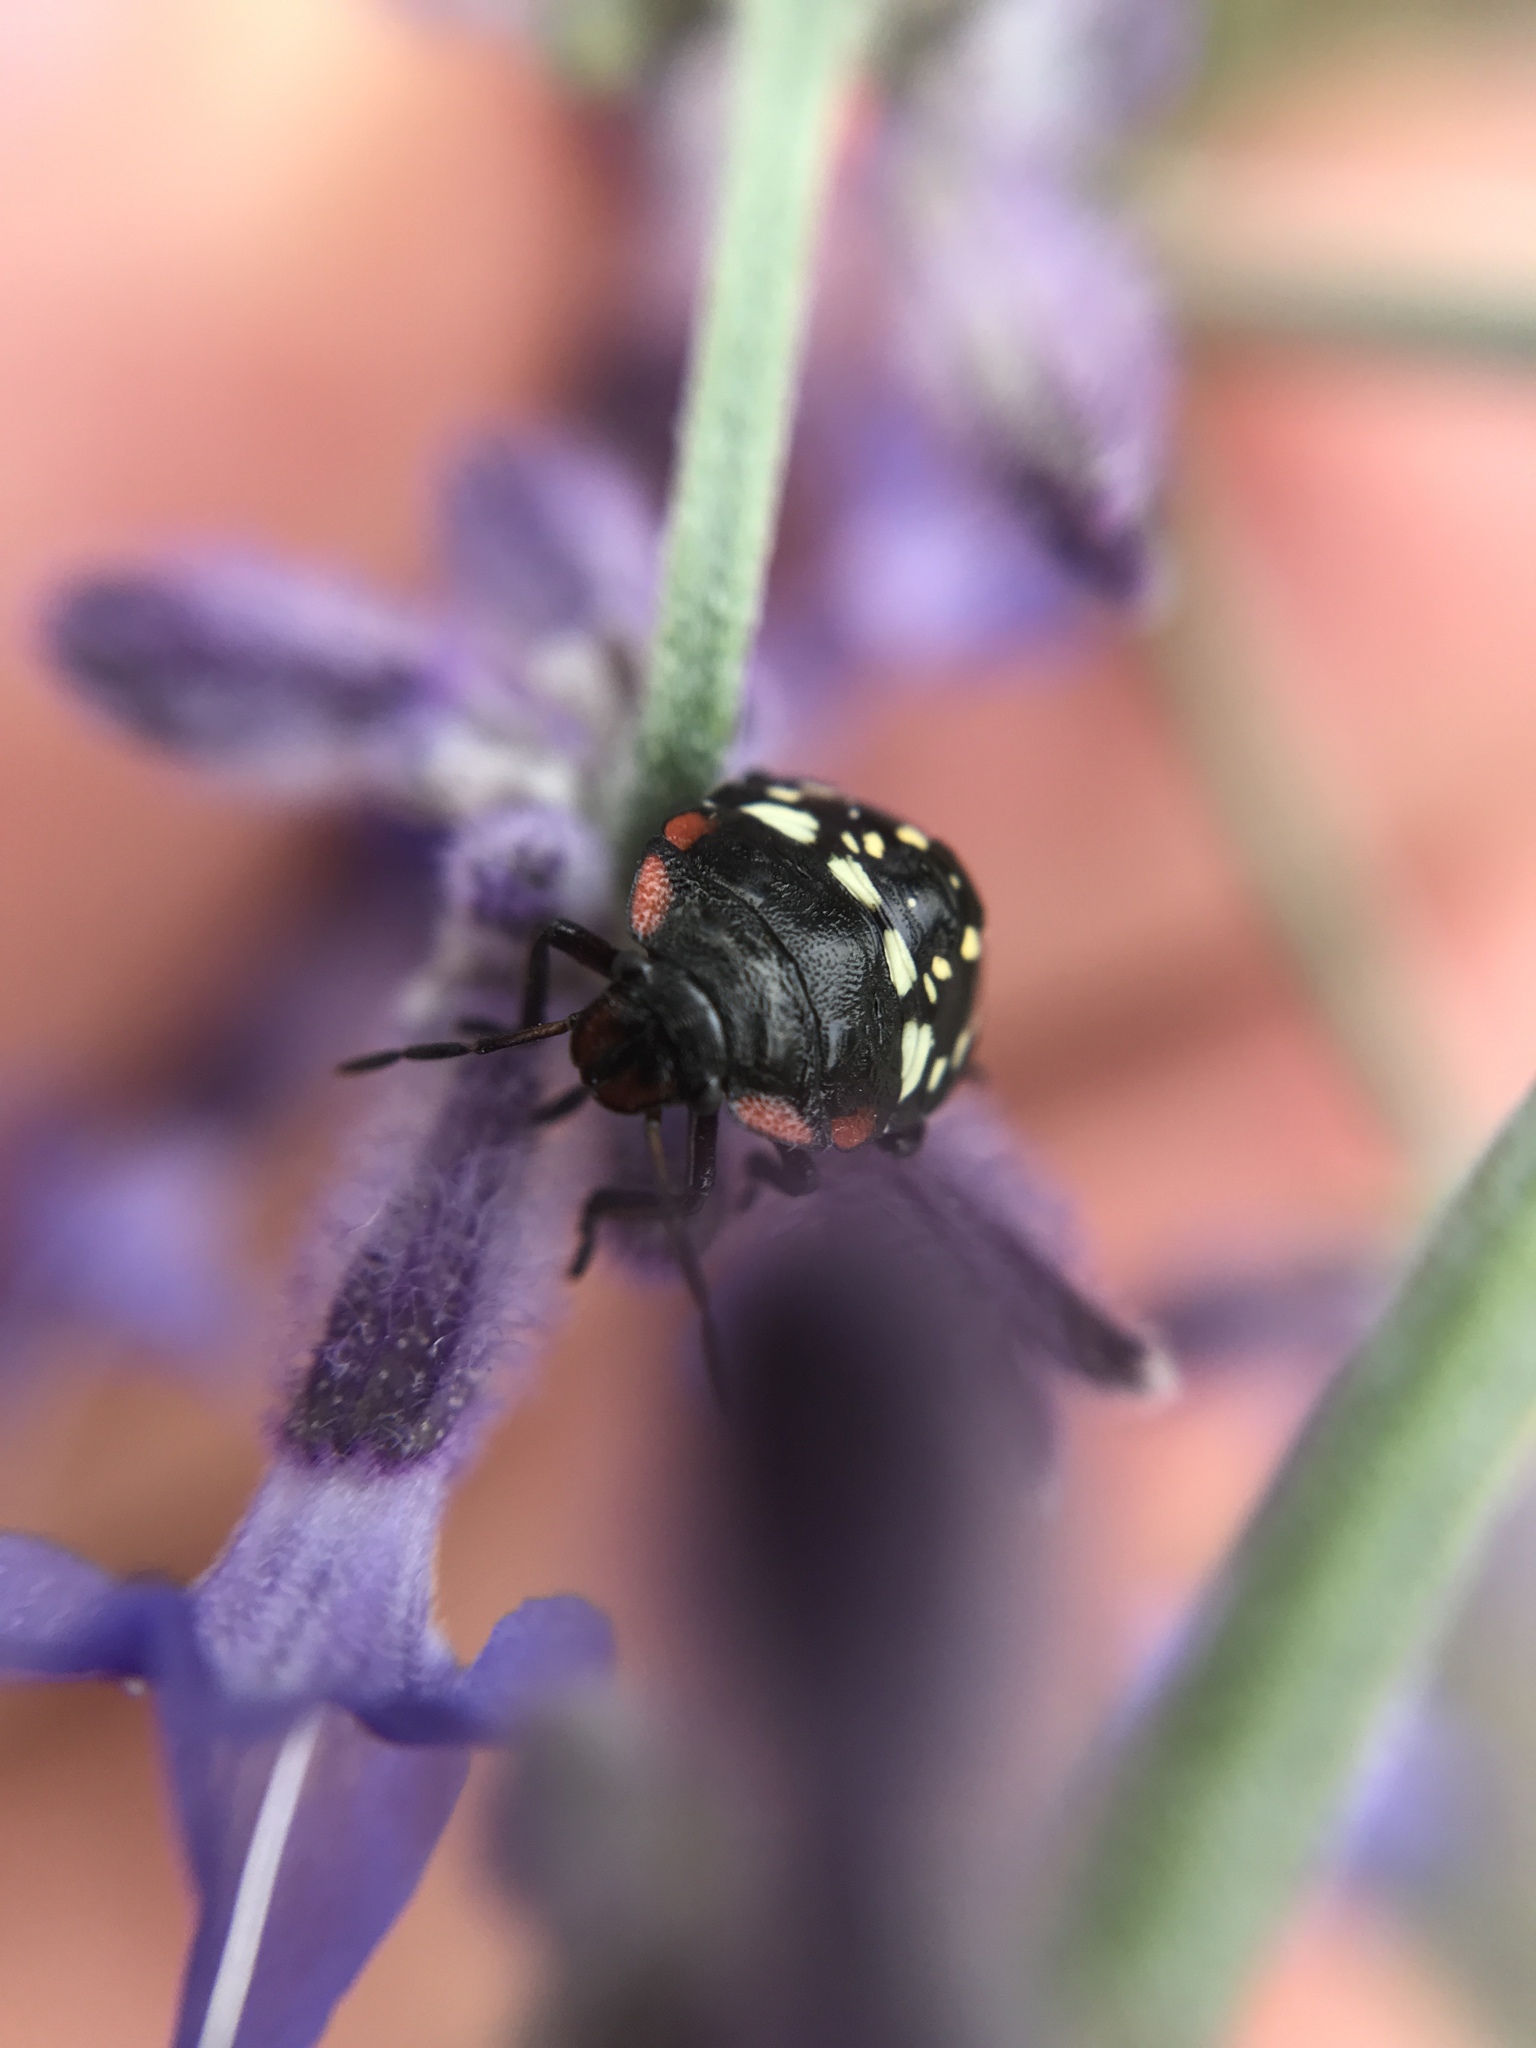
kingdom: Animalia
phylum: Arthropoda
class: Insecta
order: Hemiptera
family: Pentatomidae
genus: Nezara
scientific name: Nezara viridula
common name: Southern green stink bug
